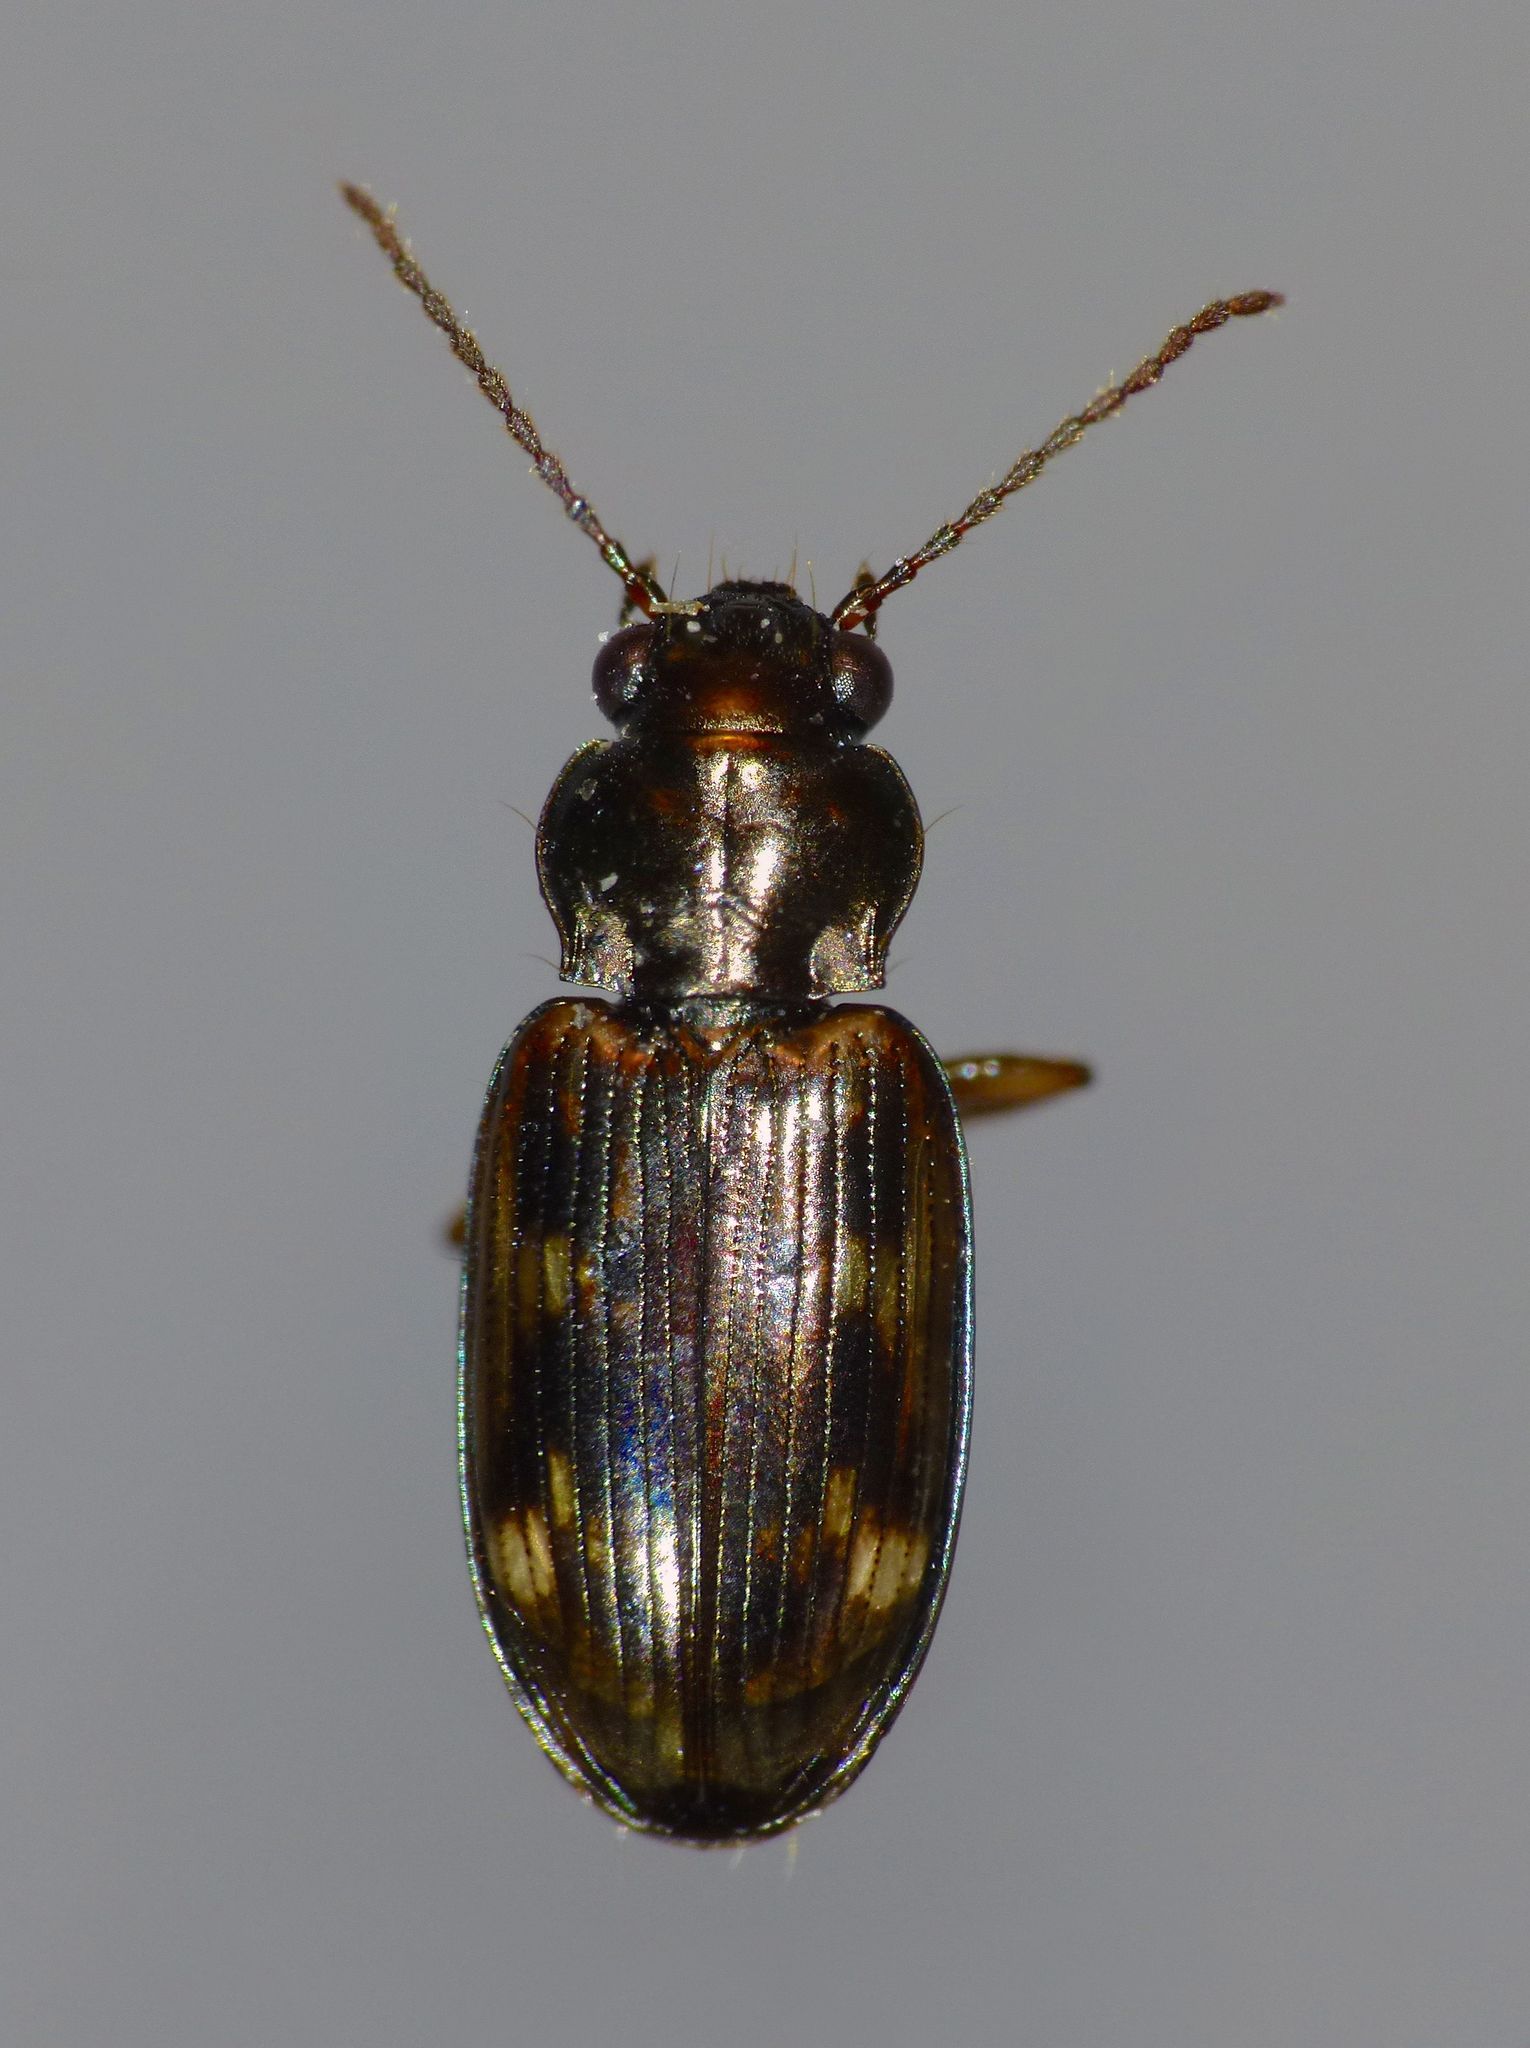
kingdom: Animalia
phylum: Arthropoda
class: Insecta
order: Coleoptera
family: Carabidae
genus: Bembidion
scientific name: Bembidion brullei
